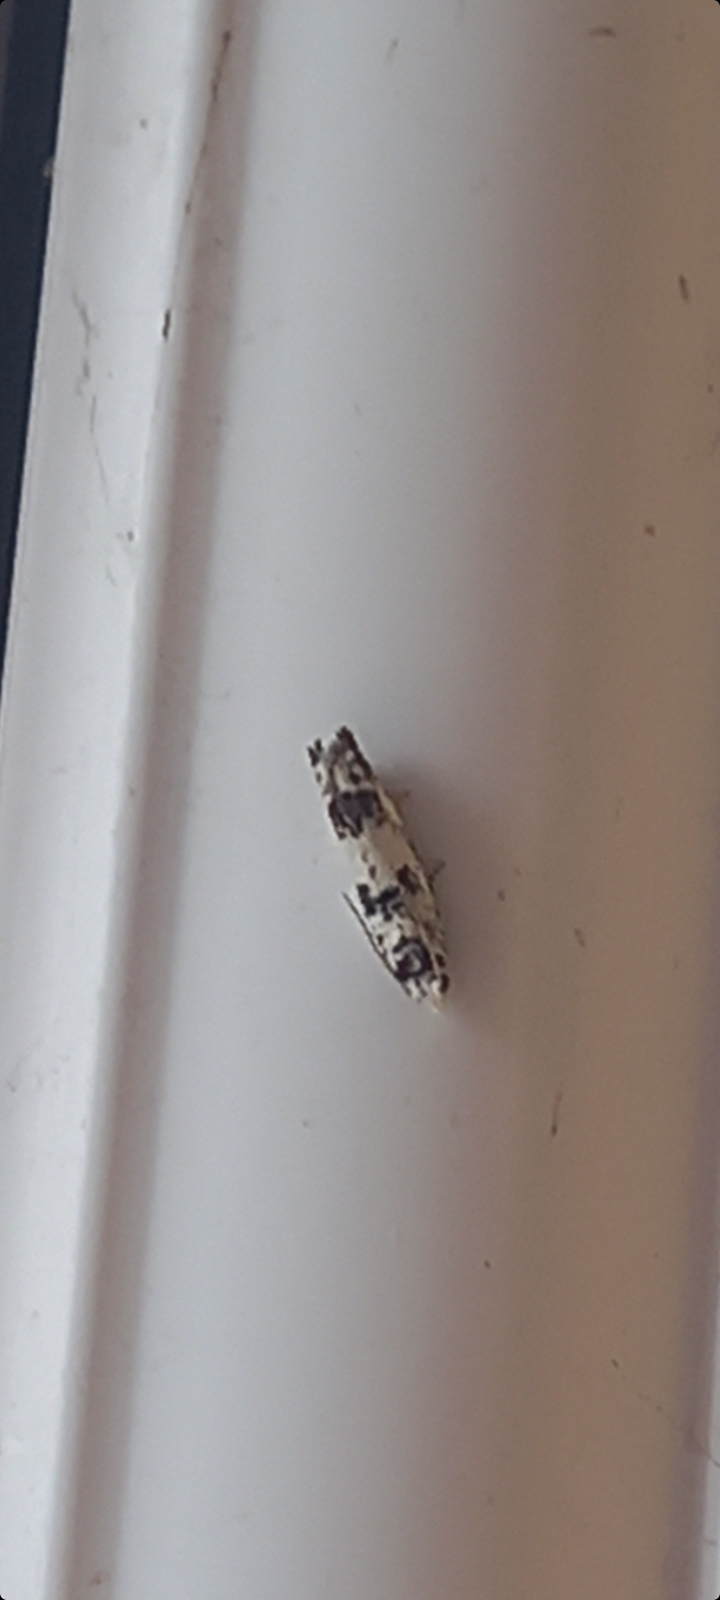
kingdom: Animalia
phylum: Arthropoda
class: Insecta
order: Lepidoptera
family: Tortricidae
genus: Eucosma
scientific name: Eucosma campoliliana
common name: Marbled bell
